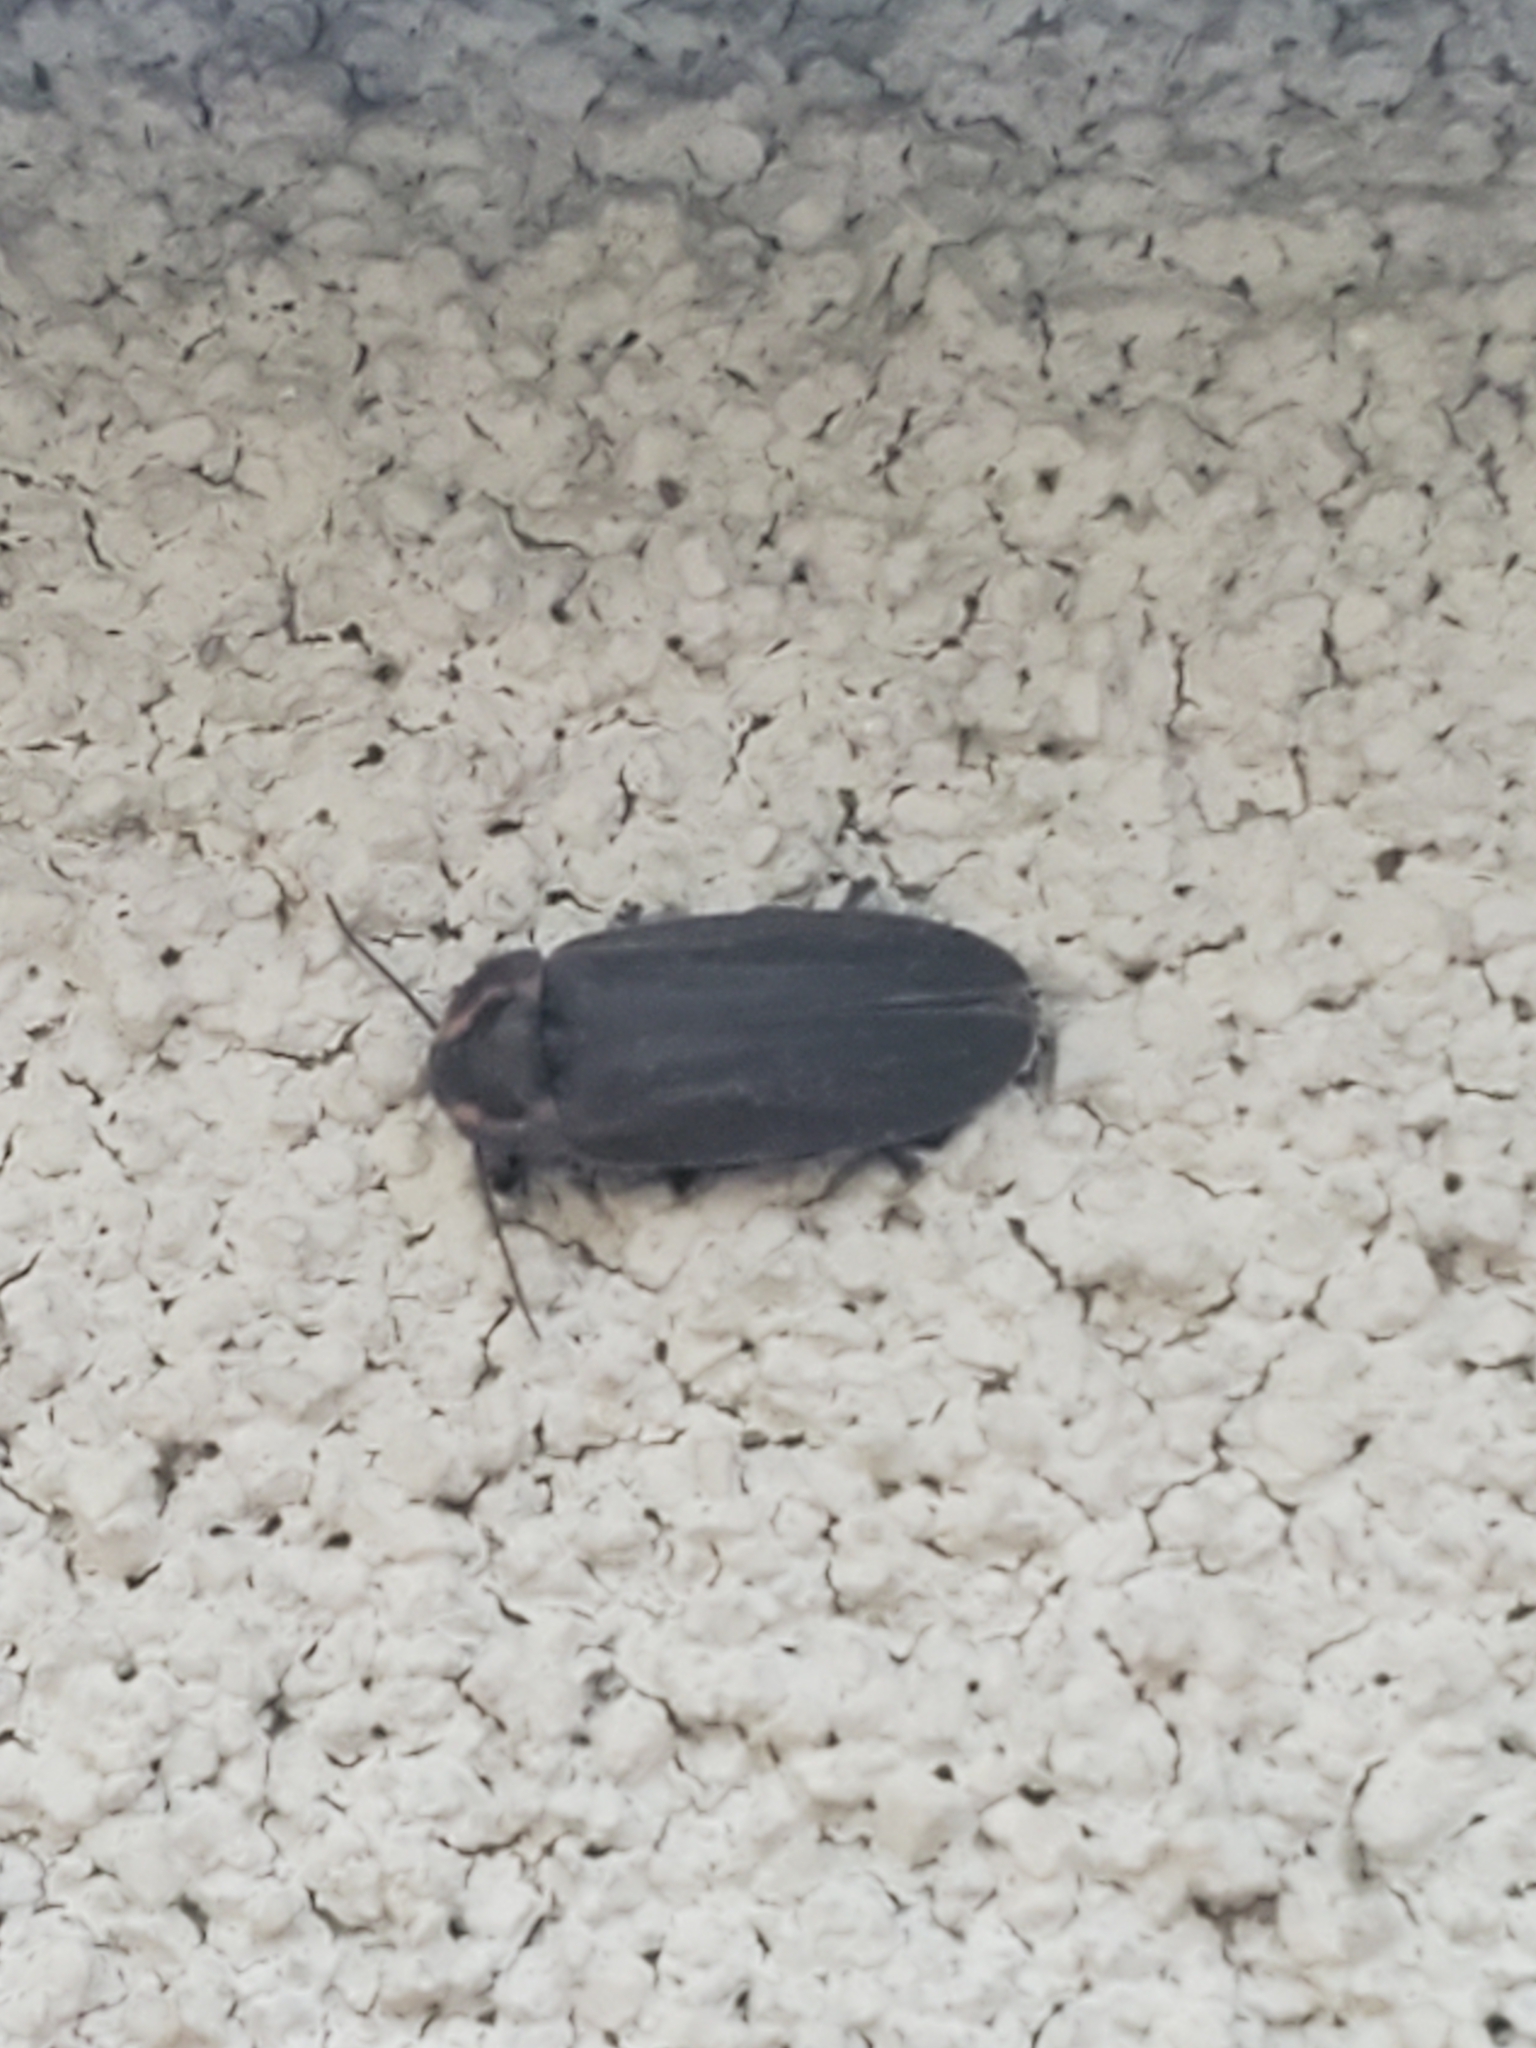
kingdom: Animalia
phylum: Arthropoda
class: Insecta
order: Coleoptera
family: Lampyridae
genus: Photinus
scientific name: Photinus corrusca
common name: Winter firefly
